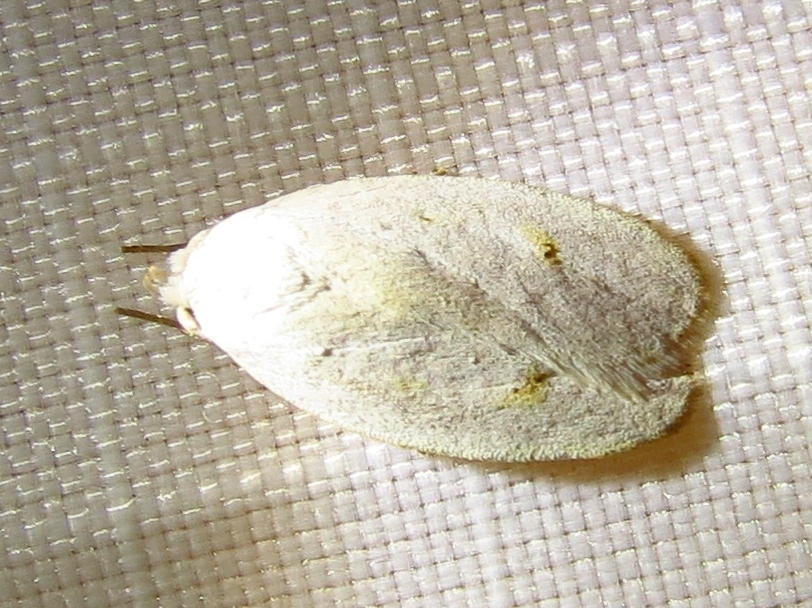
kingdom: Animalia
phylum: Arthropoda
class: Insecta
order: Lepidoptera
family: Peleopodidae
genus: Durrantia
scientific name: Durrantia piperatella
